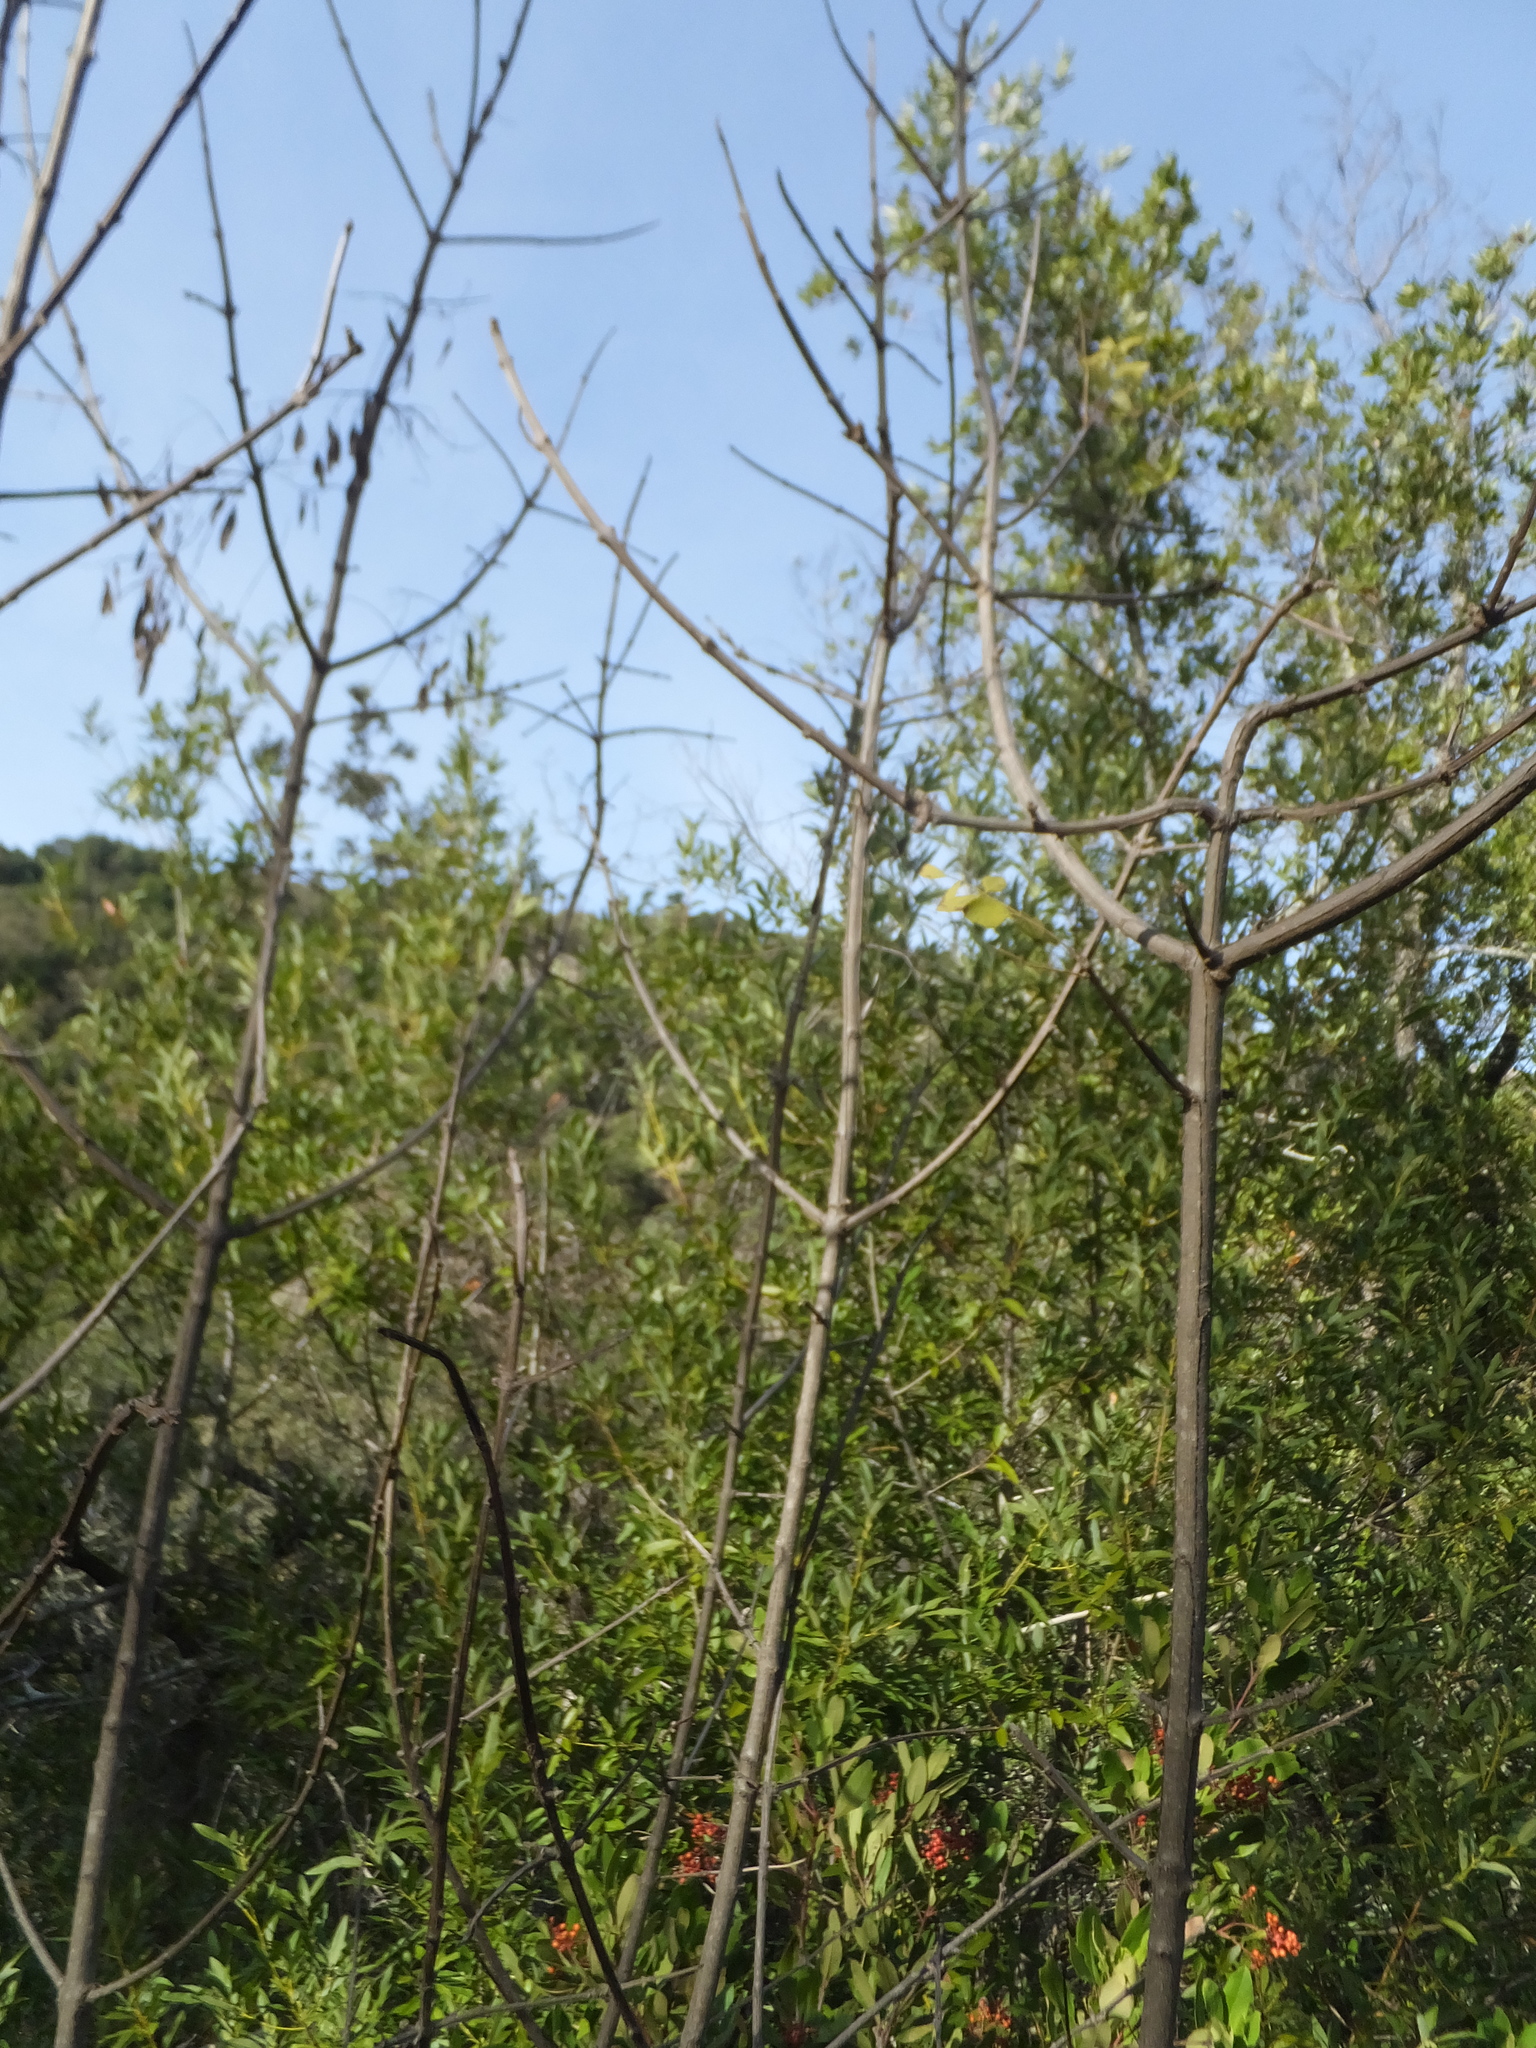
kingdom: Plantae
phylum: Tracheophyta
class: Magnoliopsida
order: Lamiales
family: Oleaceae
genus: Fraxinus
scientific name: Fraxinus dipetala
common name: California ash
